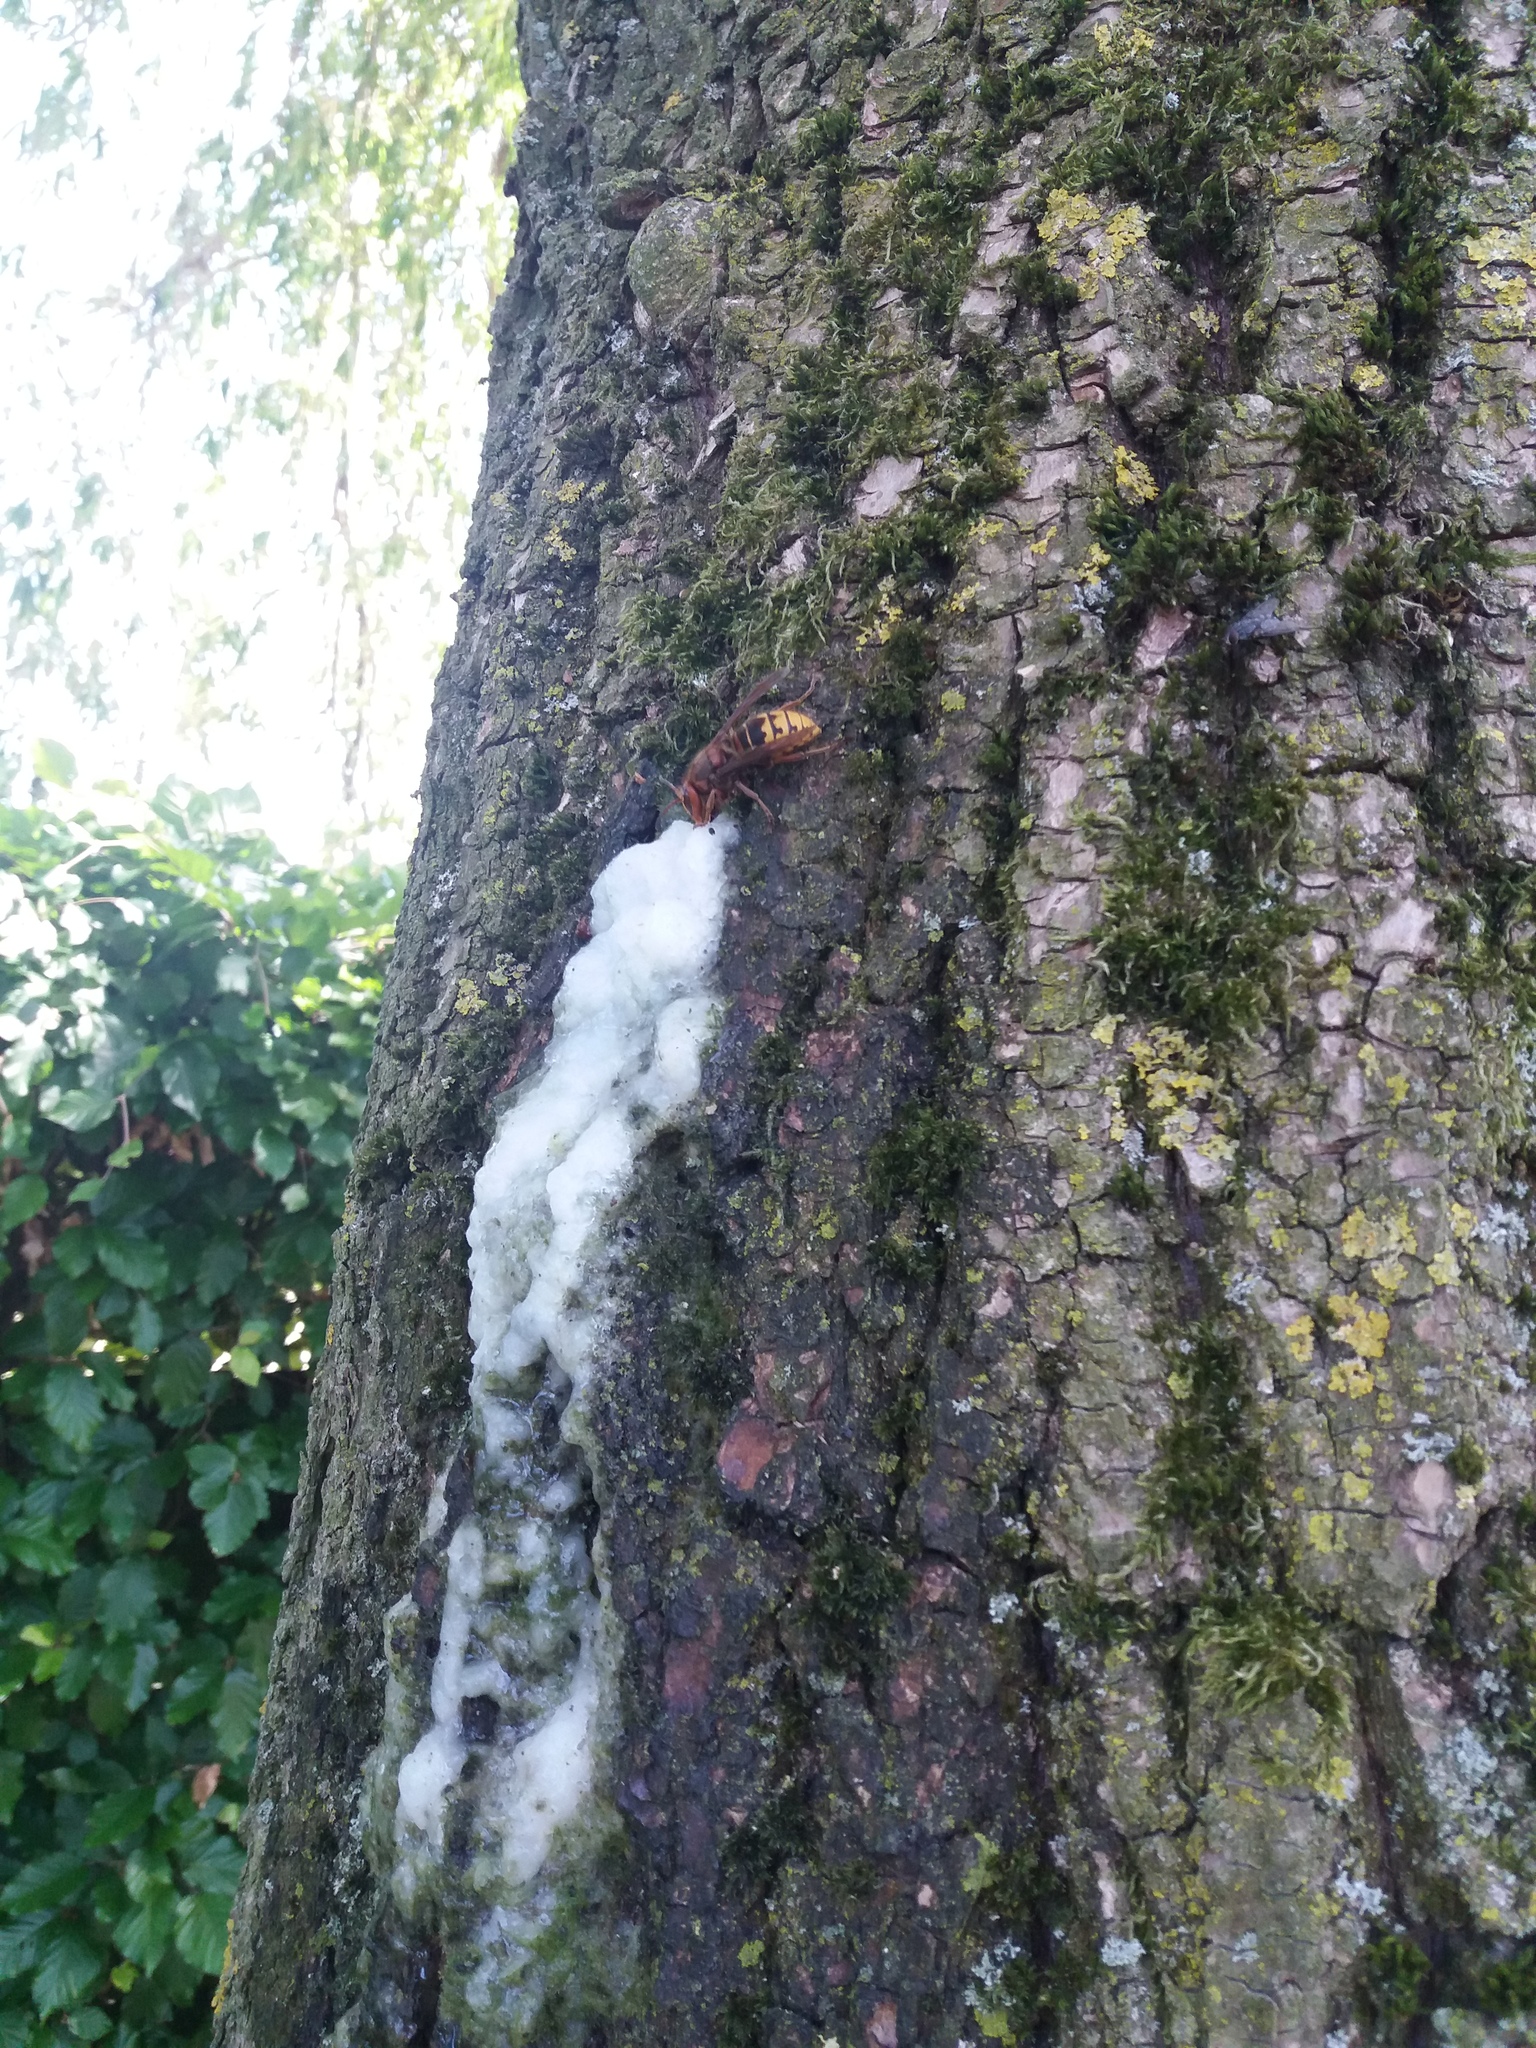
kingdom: Animalia
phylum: Arthropoda
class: Insecta
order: Hymenoptera
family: Vespidae
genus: Vespa
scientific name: Vespa crabro
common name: Hornet
